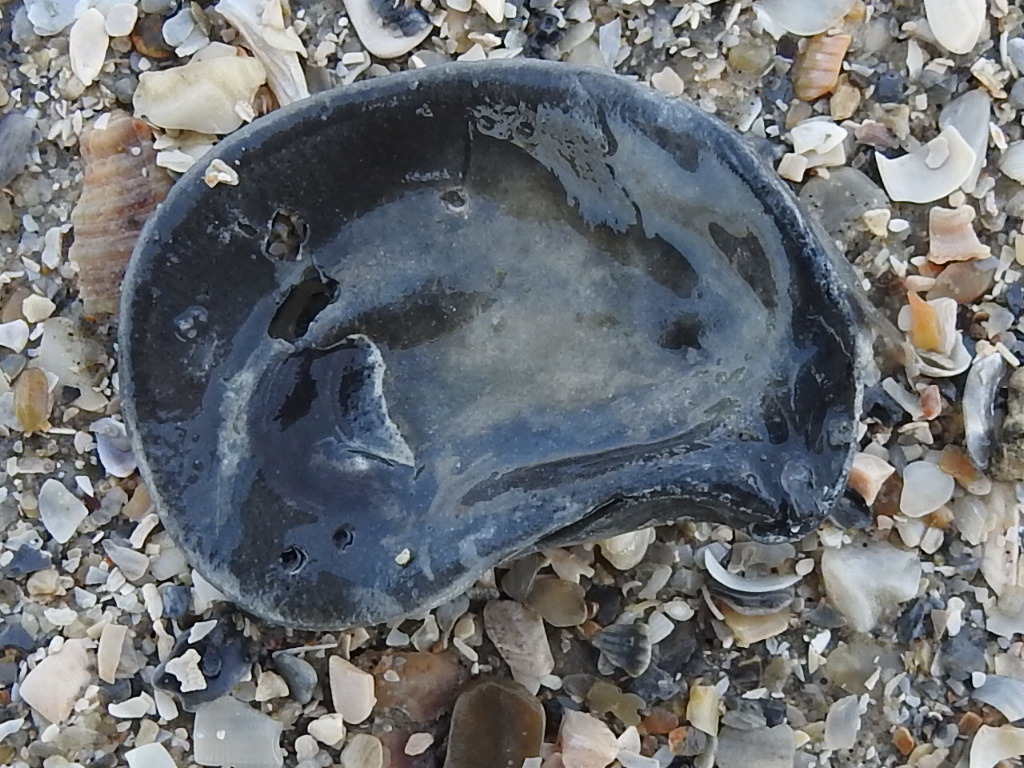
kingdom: Animalia
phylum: Mollusca
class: Bivalvia
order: Ostreida
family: Ostreidae
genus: Crassostrea
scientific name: Crassostrea virginica
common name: American oyster
